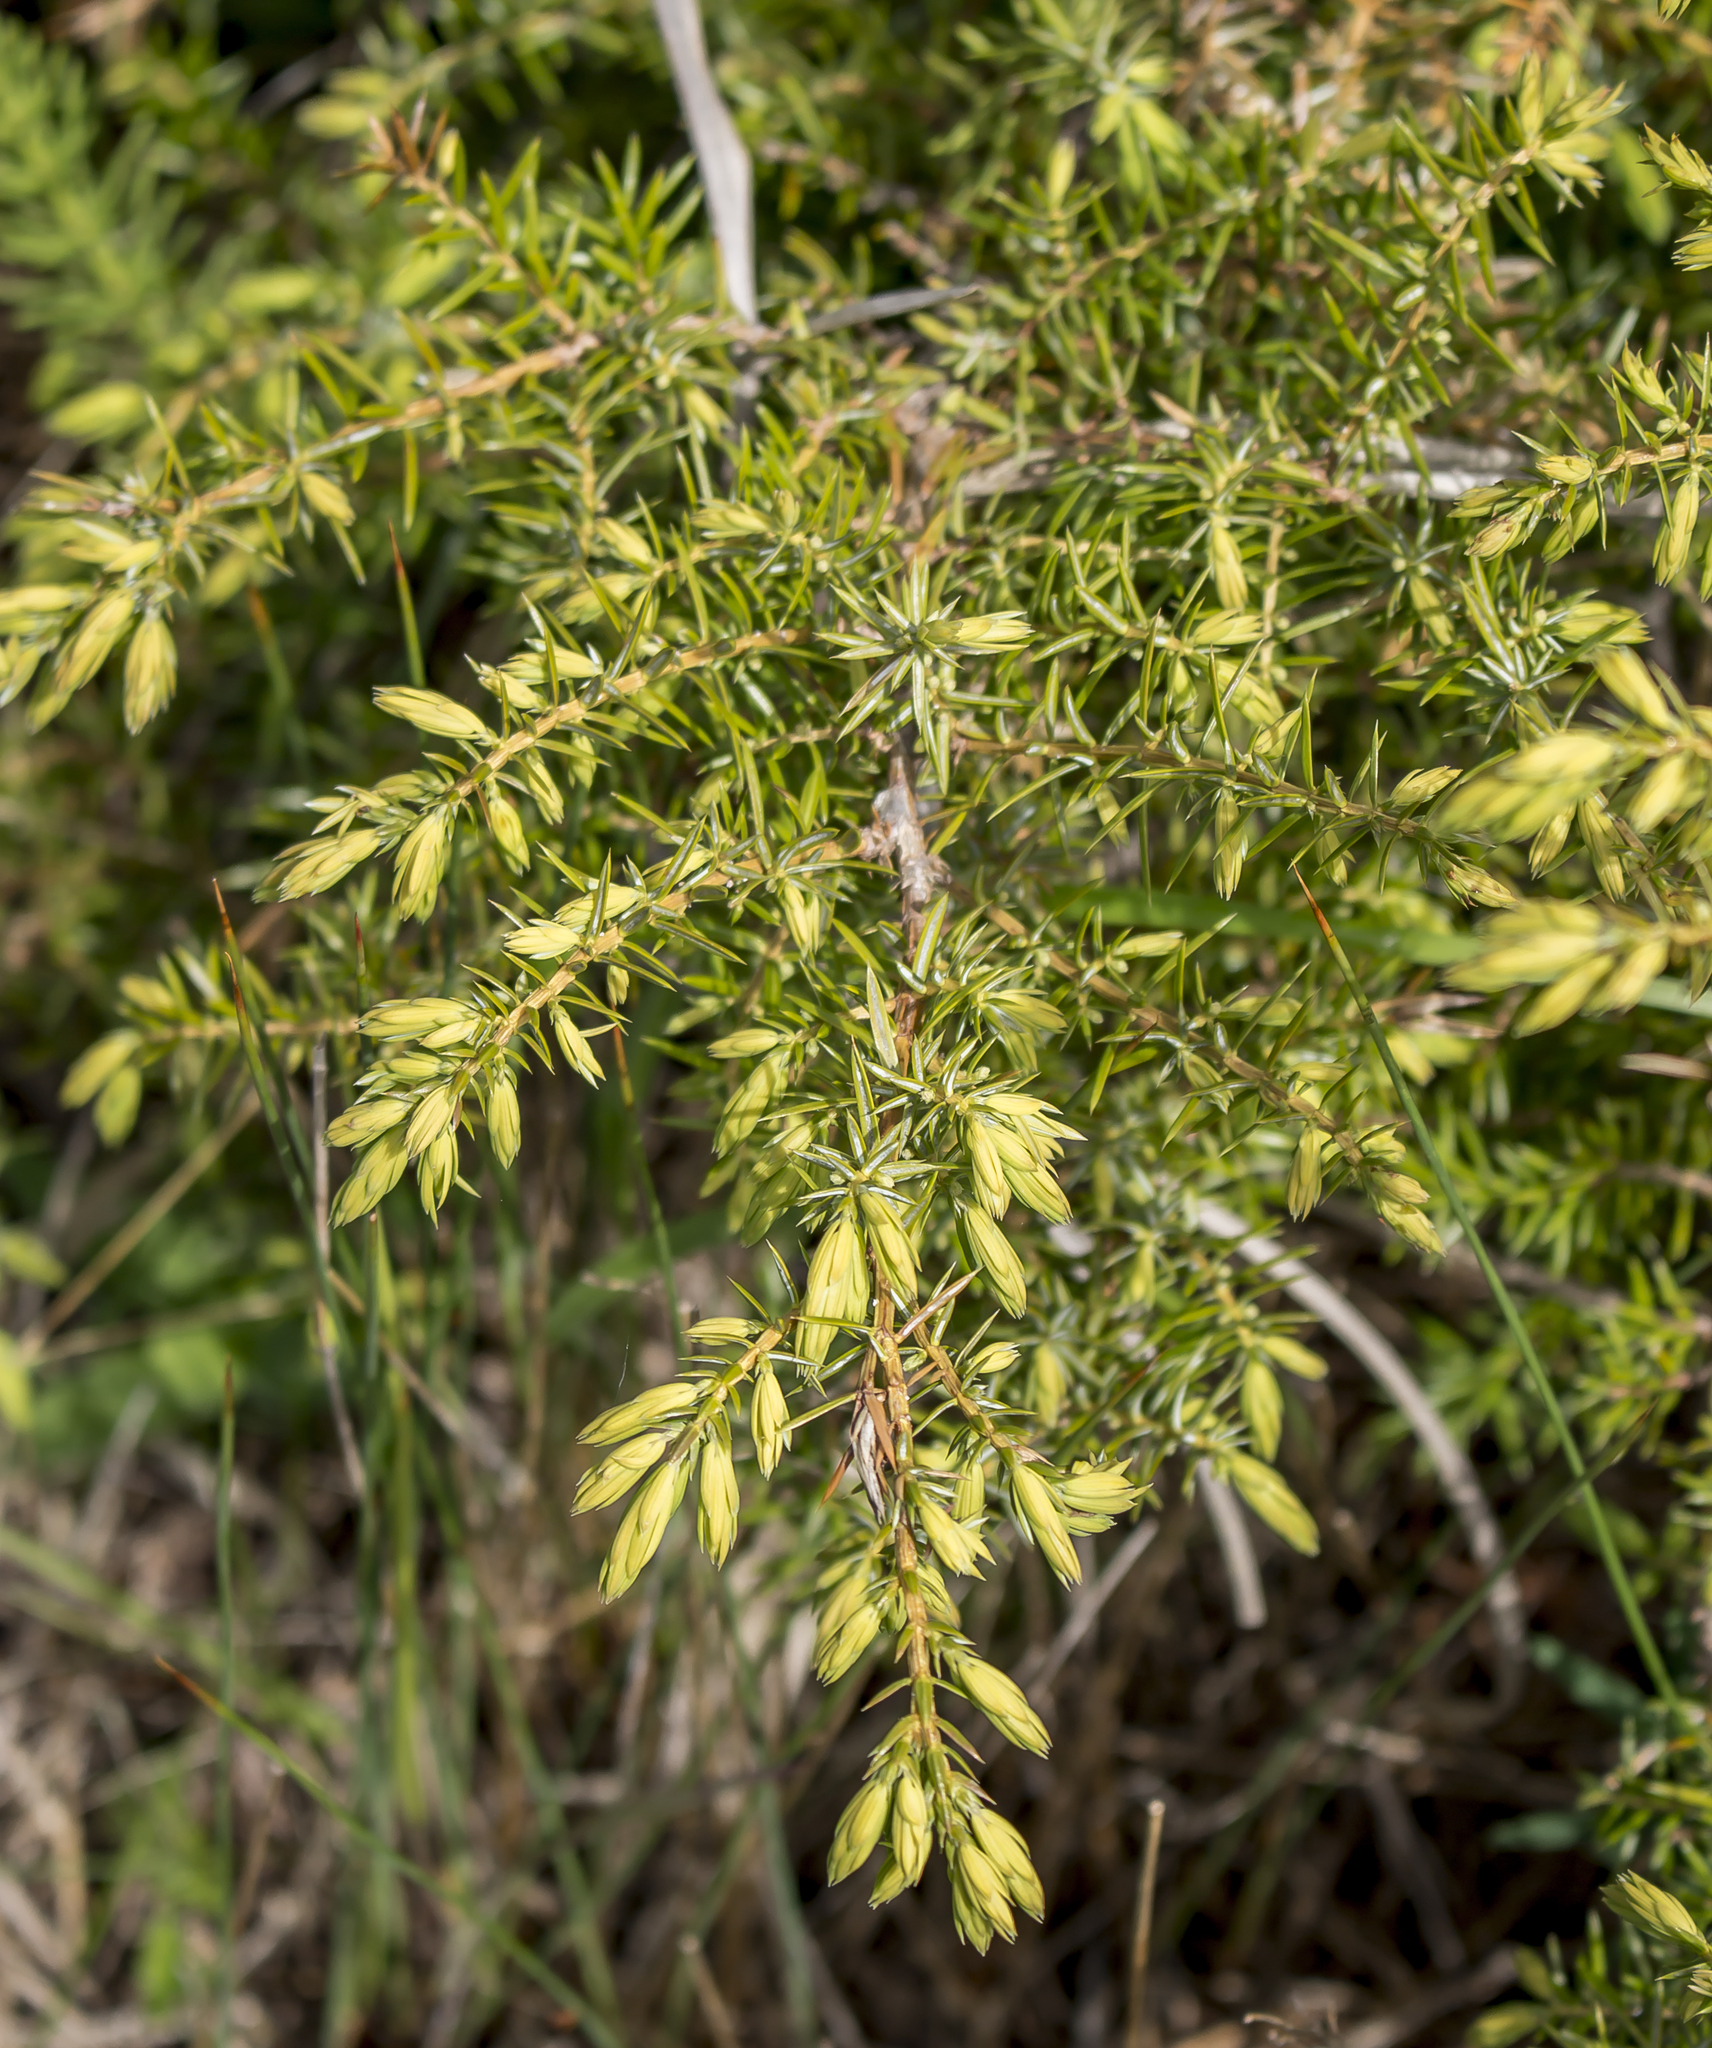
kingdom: Plantae
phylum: Tracheophyta
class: Pinopsida
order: Pinales
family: Cupressaceae
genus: Juniperus
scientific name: Juniperus communis
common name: Common juniper
